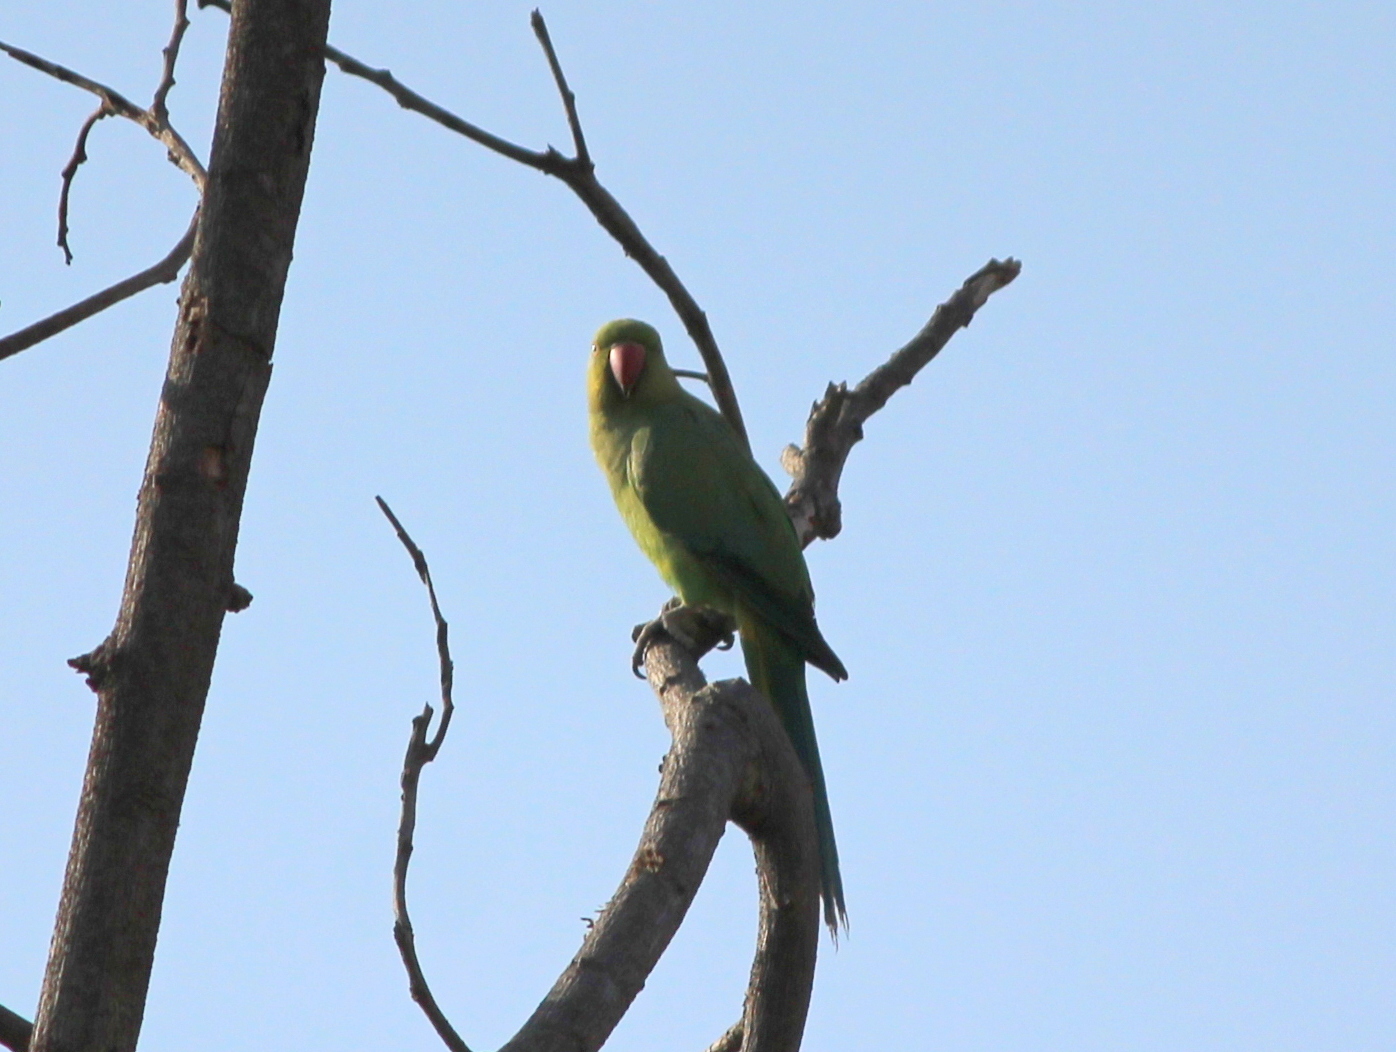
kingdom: Animalia
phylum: Chordata
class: Aves
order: Psittaciformes
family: Psittacidae
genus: Psittacula
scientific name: Psittacula krameri
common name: Rose-ringed parakeet
